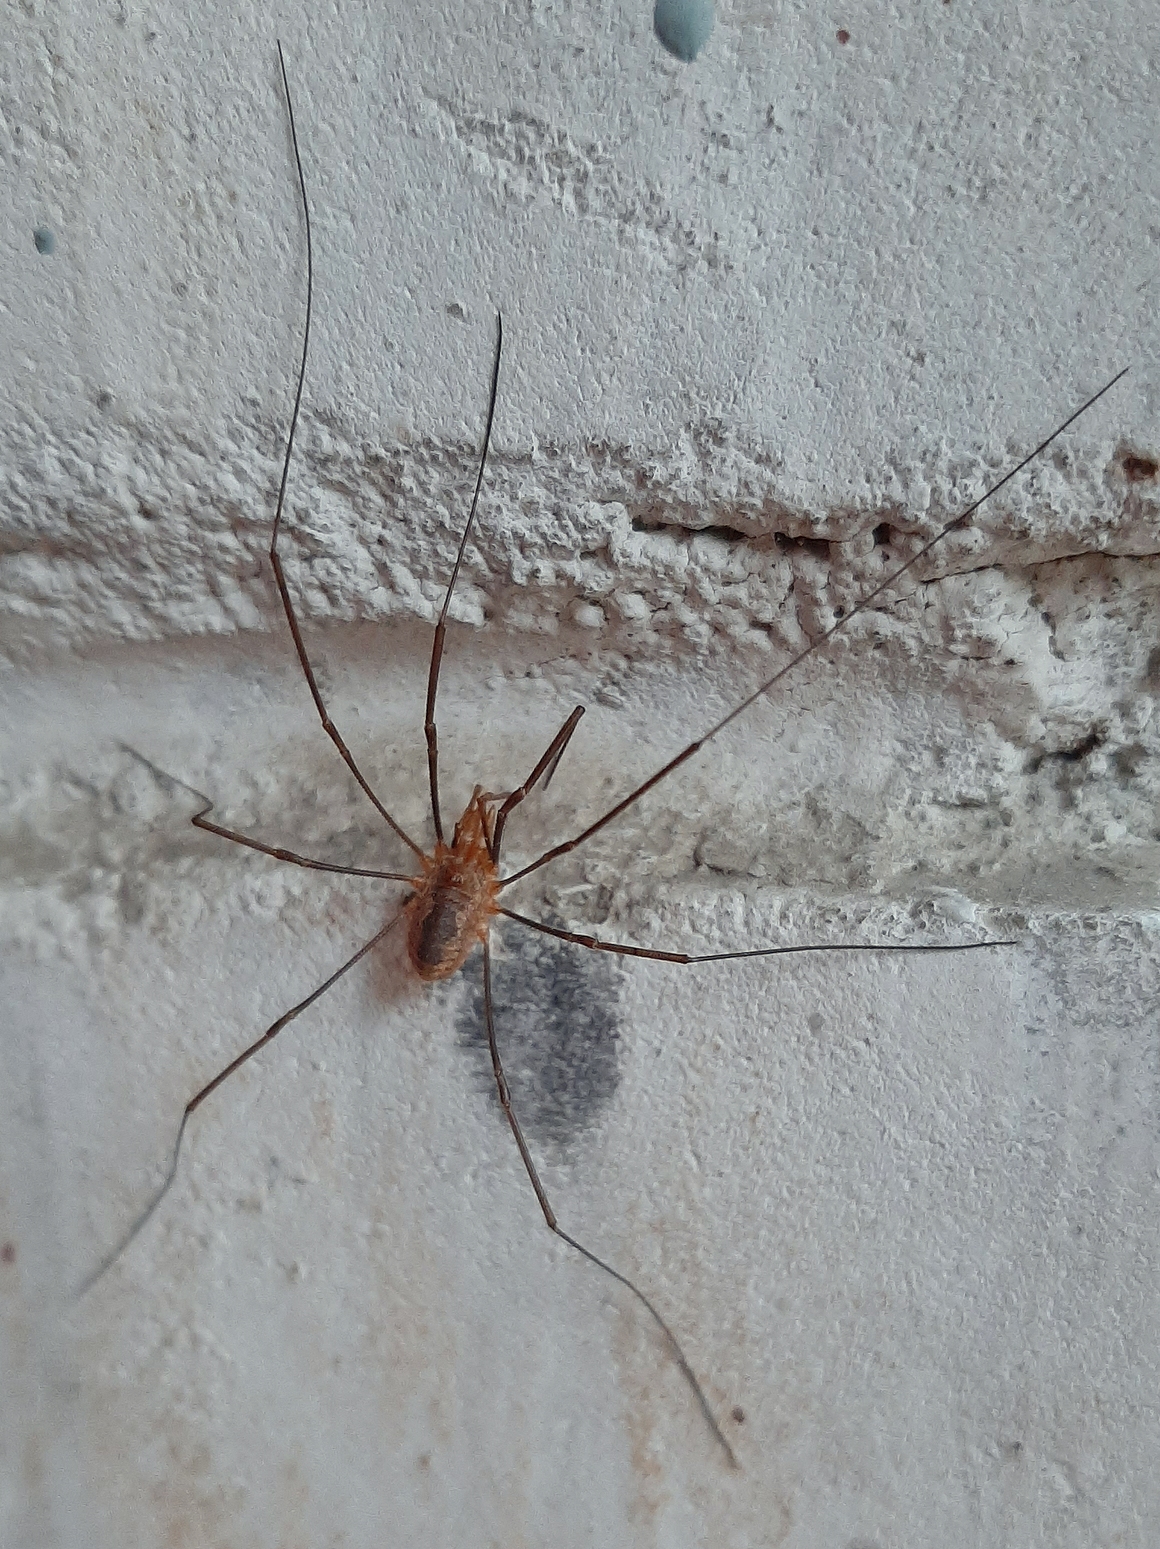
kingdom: Animalia
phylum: Arthropoda
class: Arachnida
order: Opiliones
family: Phalangiidae
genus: Phalangium
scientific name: Phalangium opilio
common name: Daddy longleg
